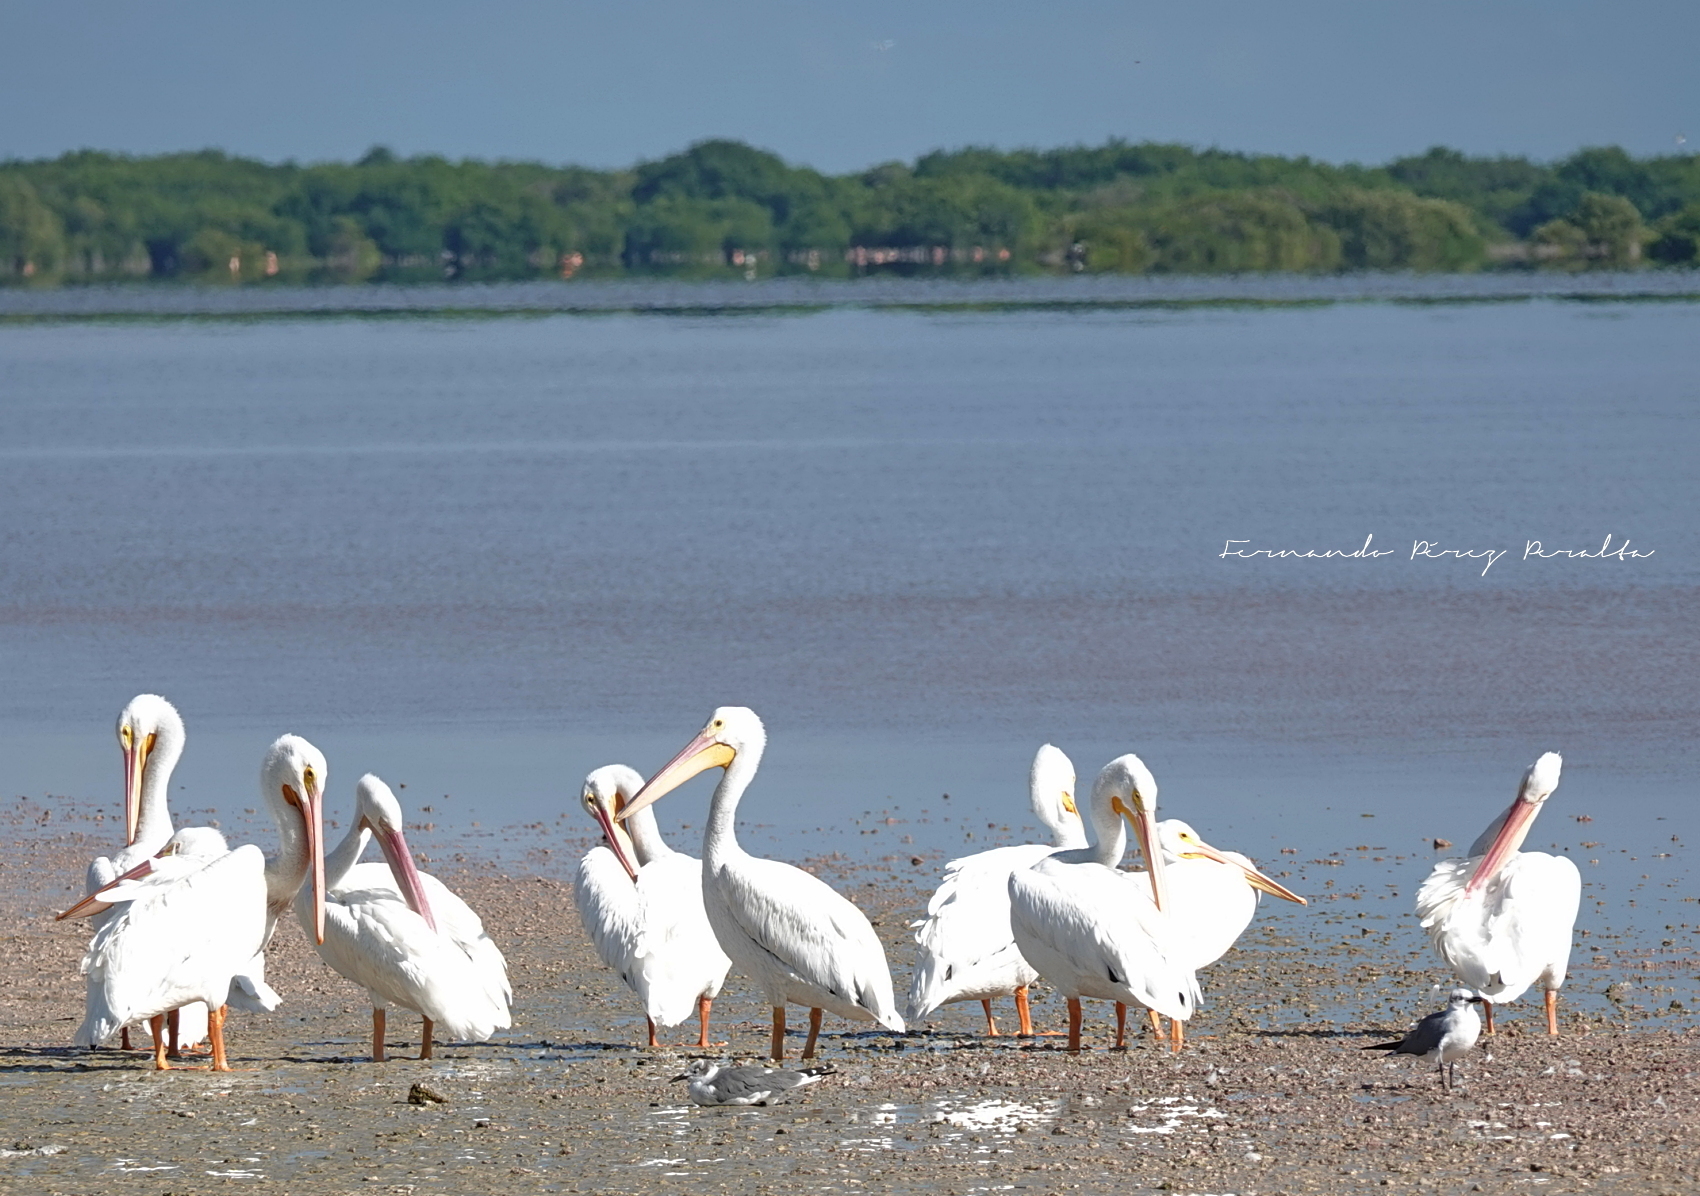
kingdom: Animalia
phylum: Chordata
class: Aves
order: Pelecaniformes
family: Pelecanidae
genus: Pelecanus
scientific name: Pelecanus erythrorhynchos
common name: American white pelican
